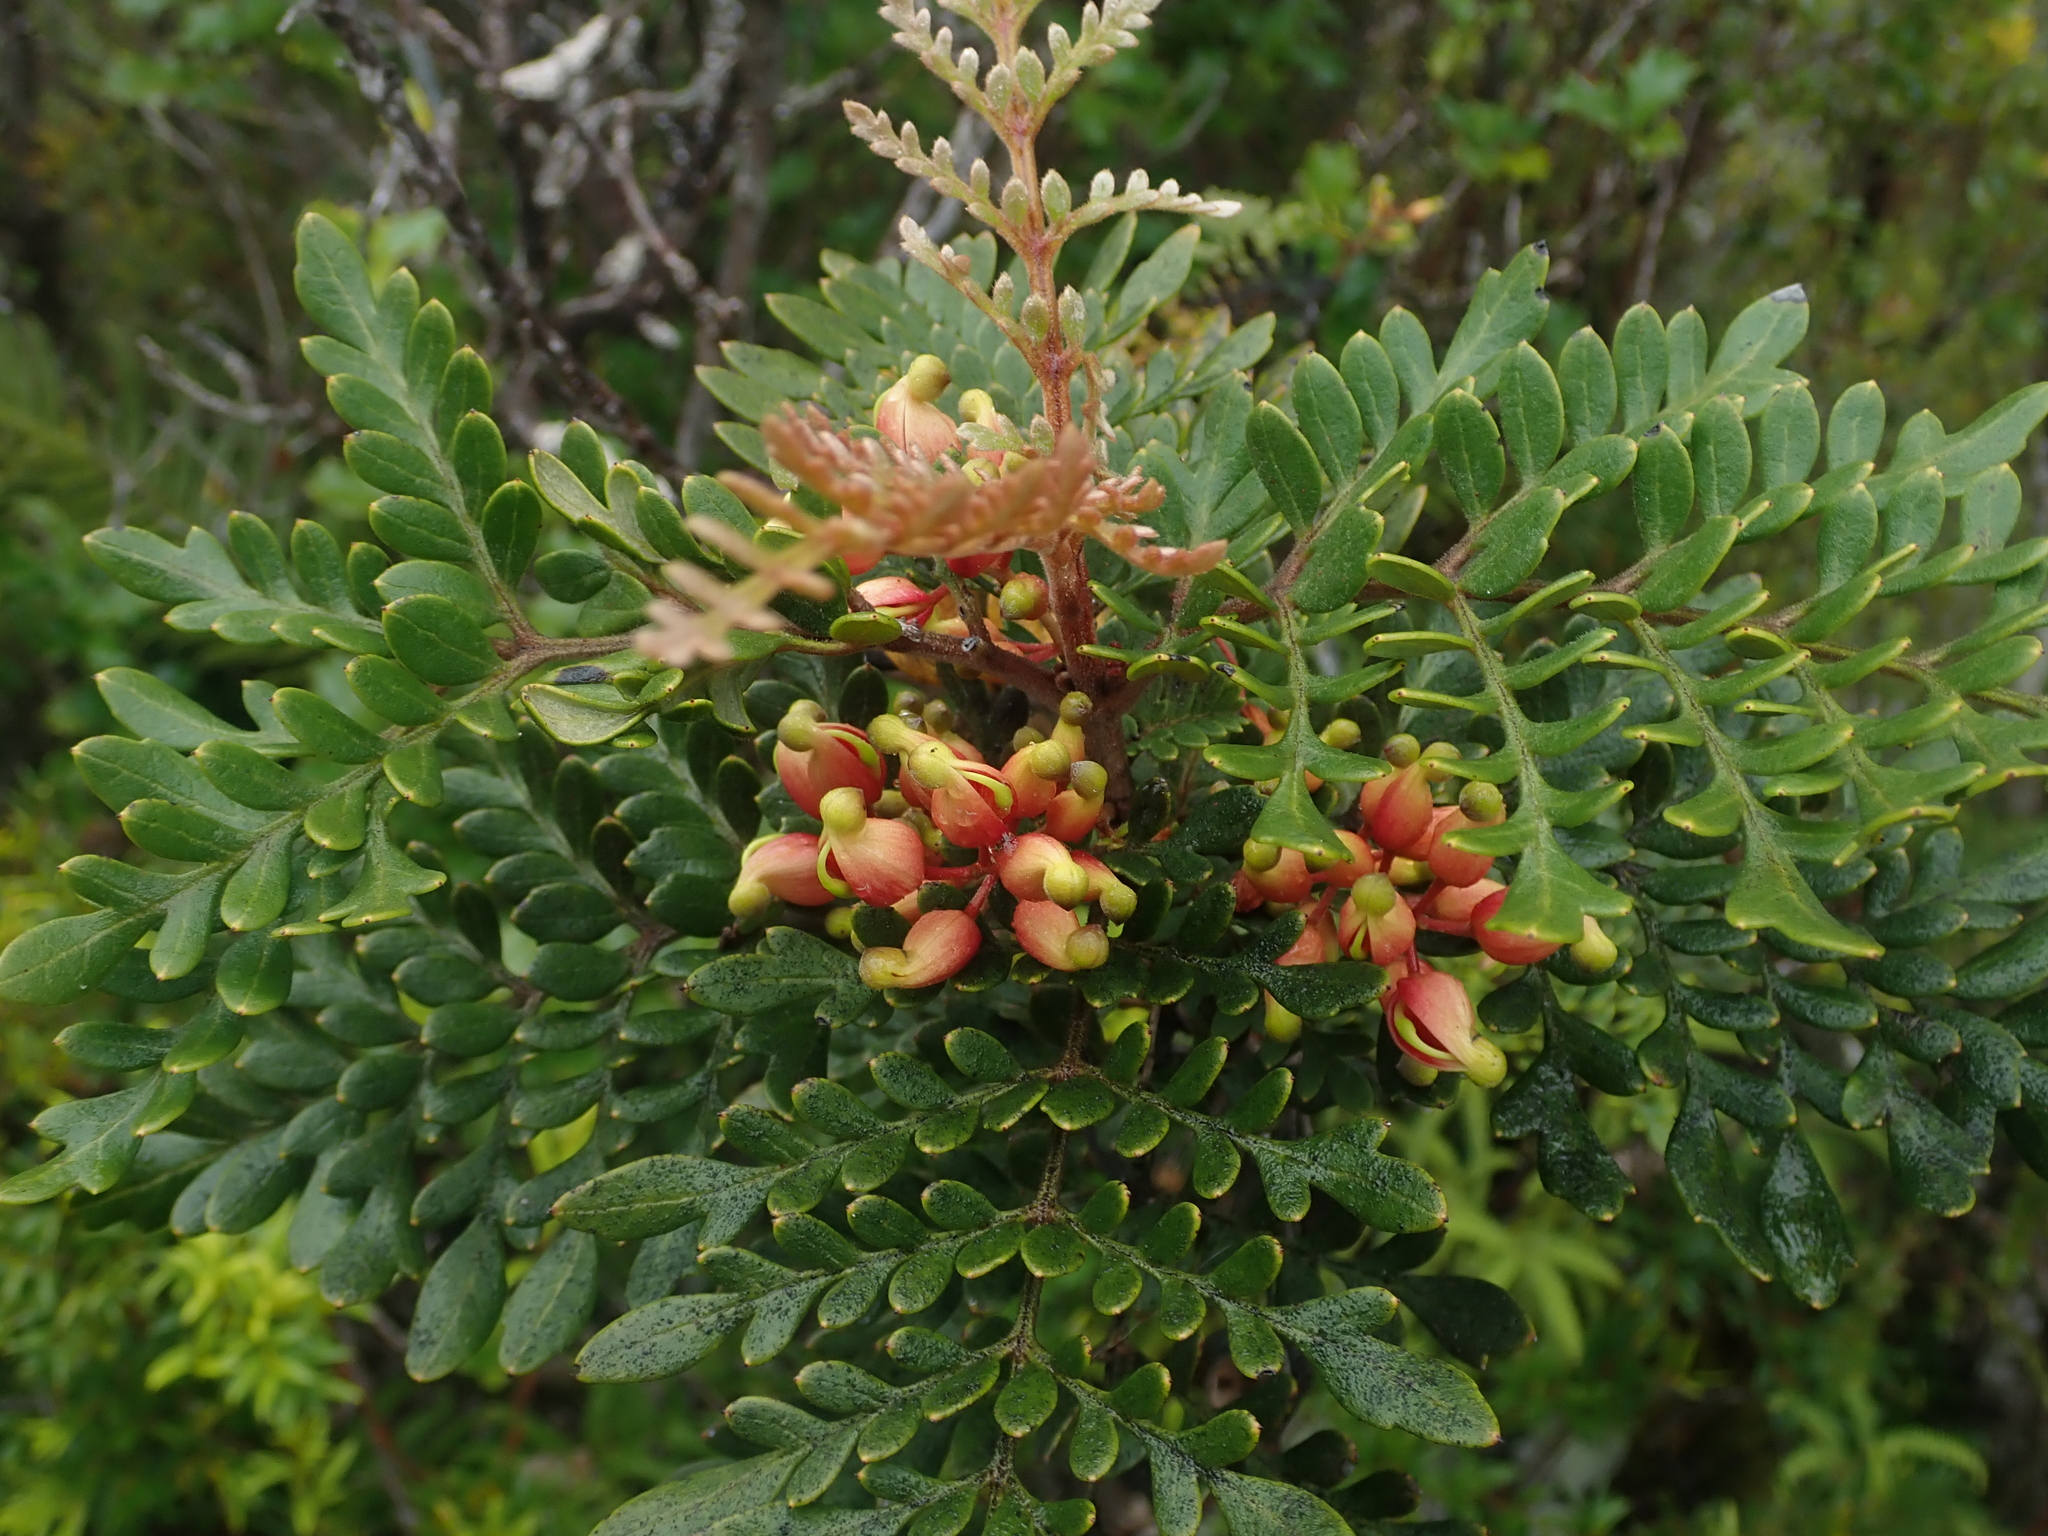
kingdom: Plantae
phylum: Tracheophyta
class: Magnoliopsida
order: Proteales
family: Proteaceae
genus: Lomatia
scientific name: Lomatia ferruginea
